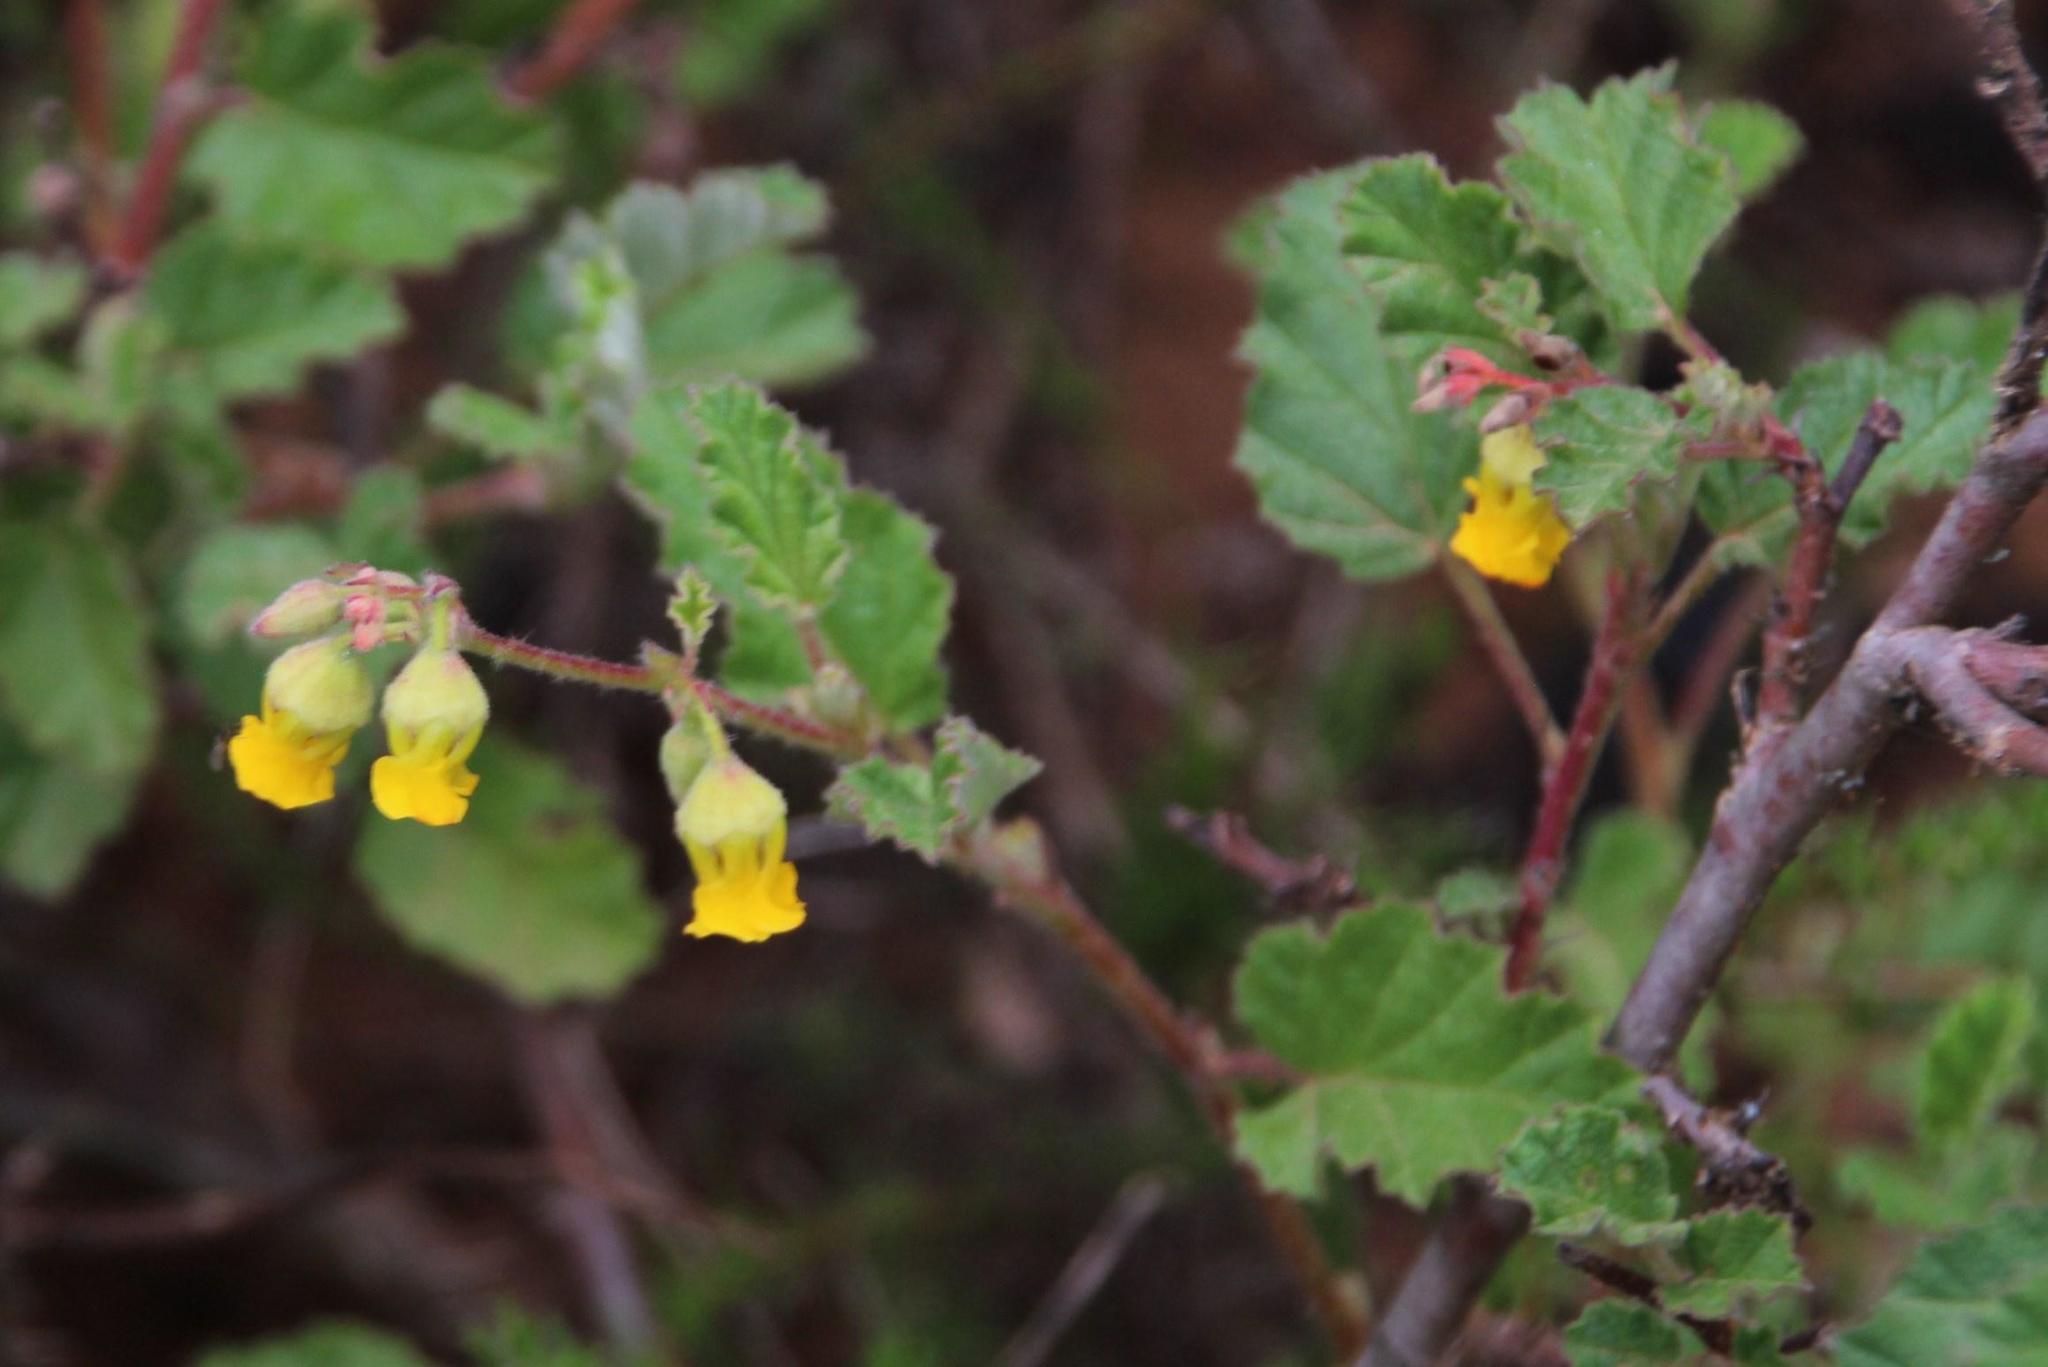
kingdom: Plantae
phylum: Tracheophyta
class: Magnoliopsida
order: Malvales
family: Malvaceae
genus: Hermannia
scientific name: Hermannia althaeoides
